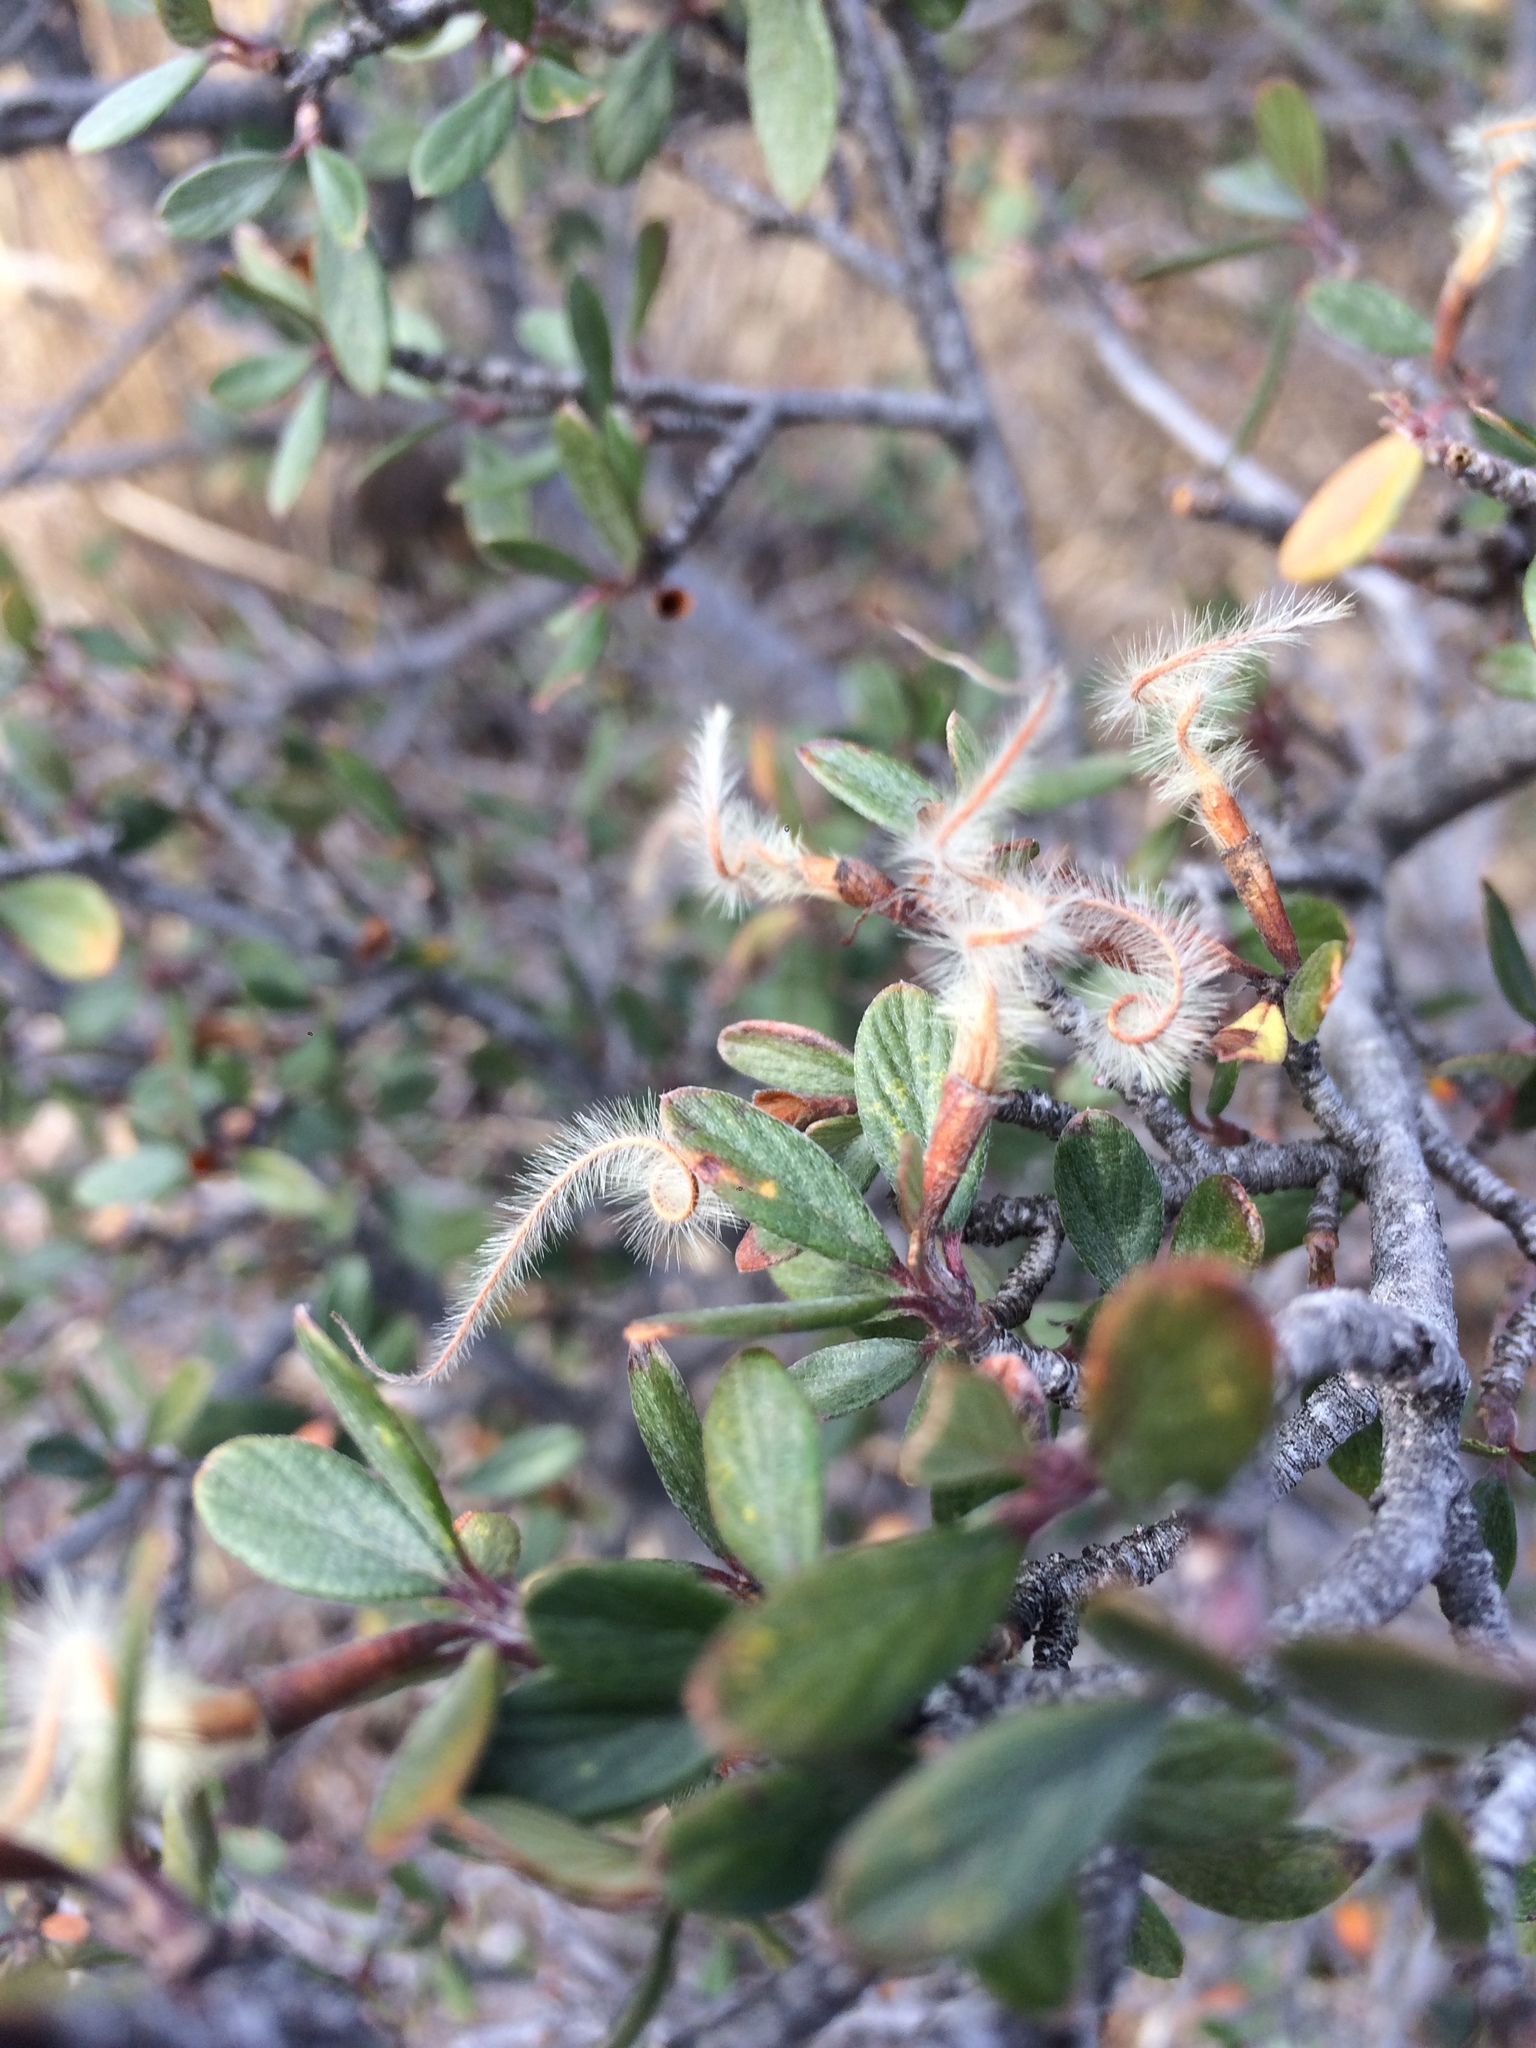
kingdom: Plantae
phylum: Tracheophyta
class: Magnoliopsida
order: Rosales
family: Rosaceae
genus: Cercocarpus
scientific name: Cercocarpus montanus
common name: Alder-leaf cercocarpus
